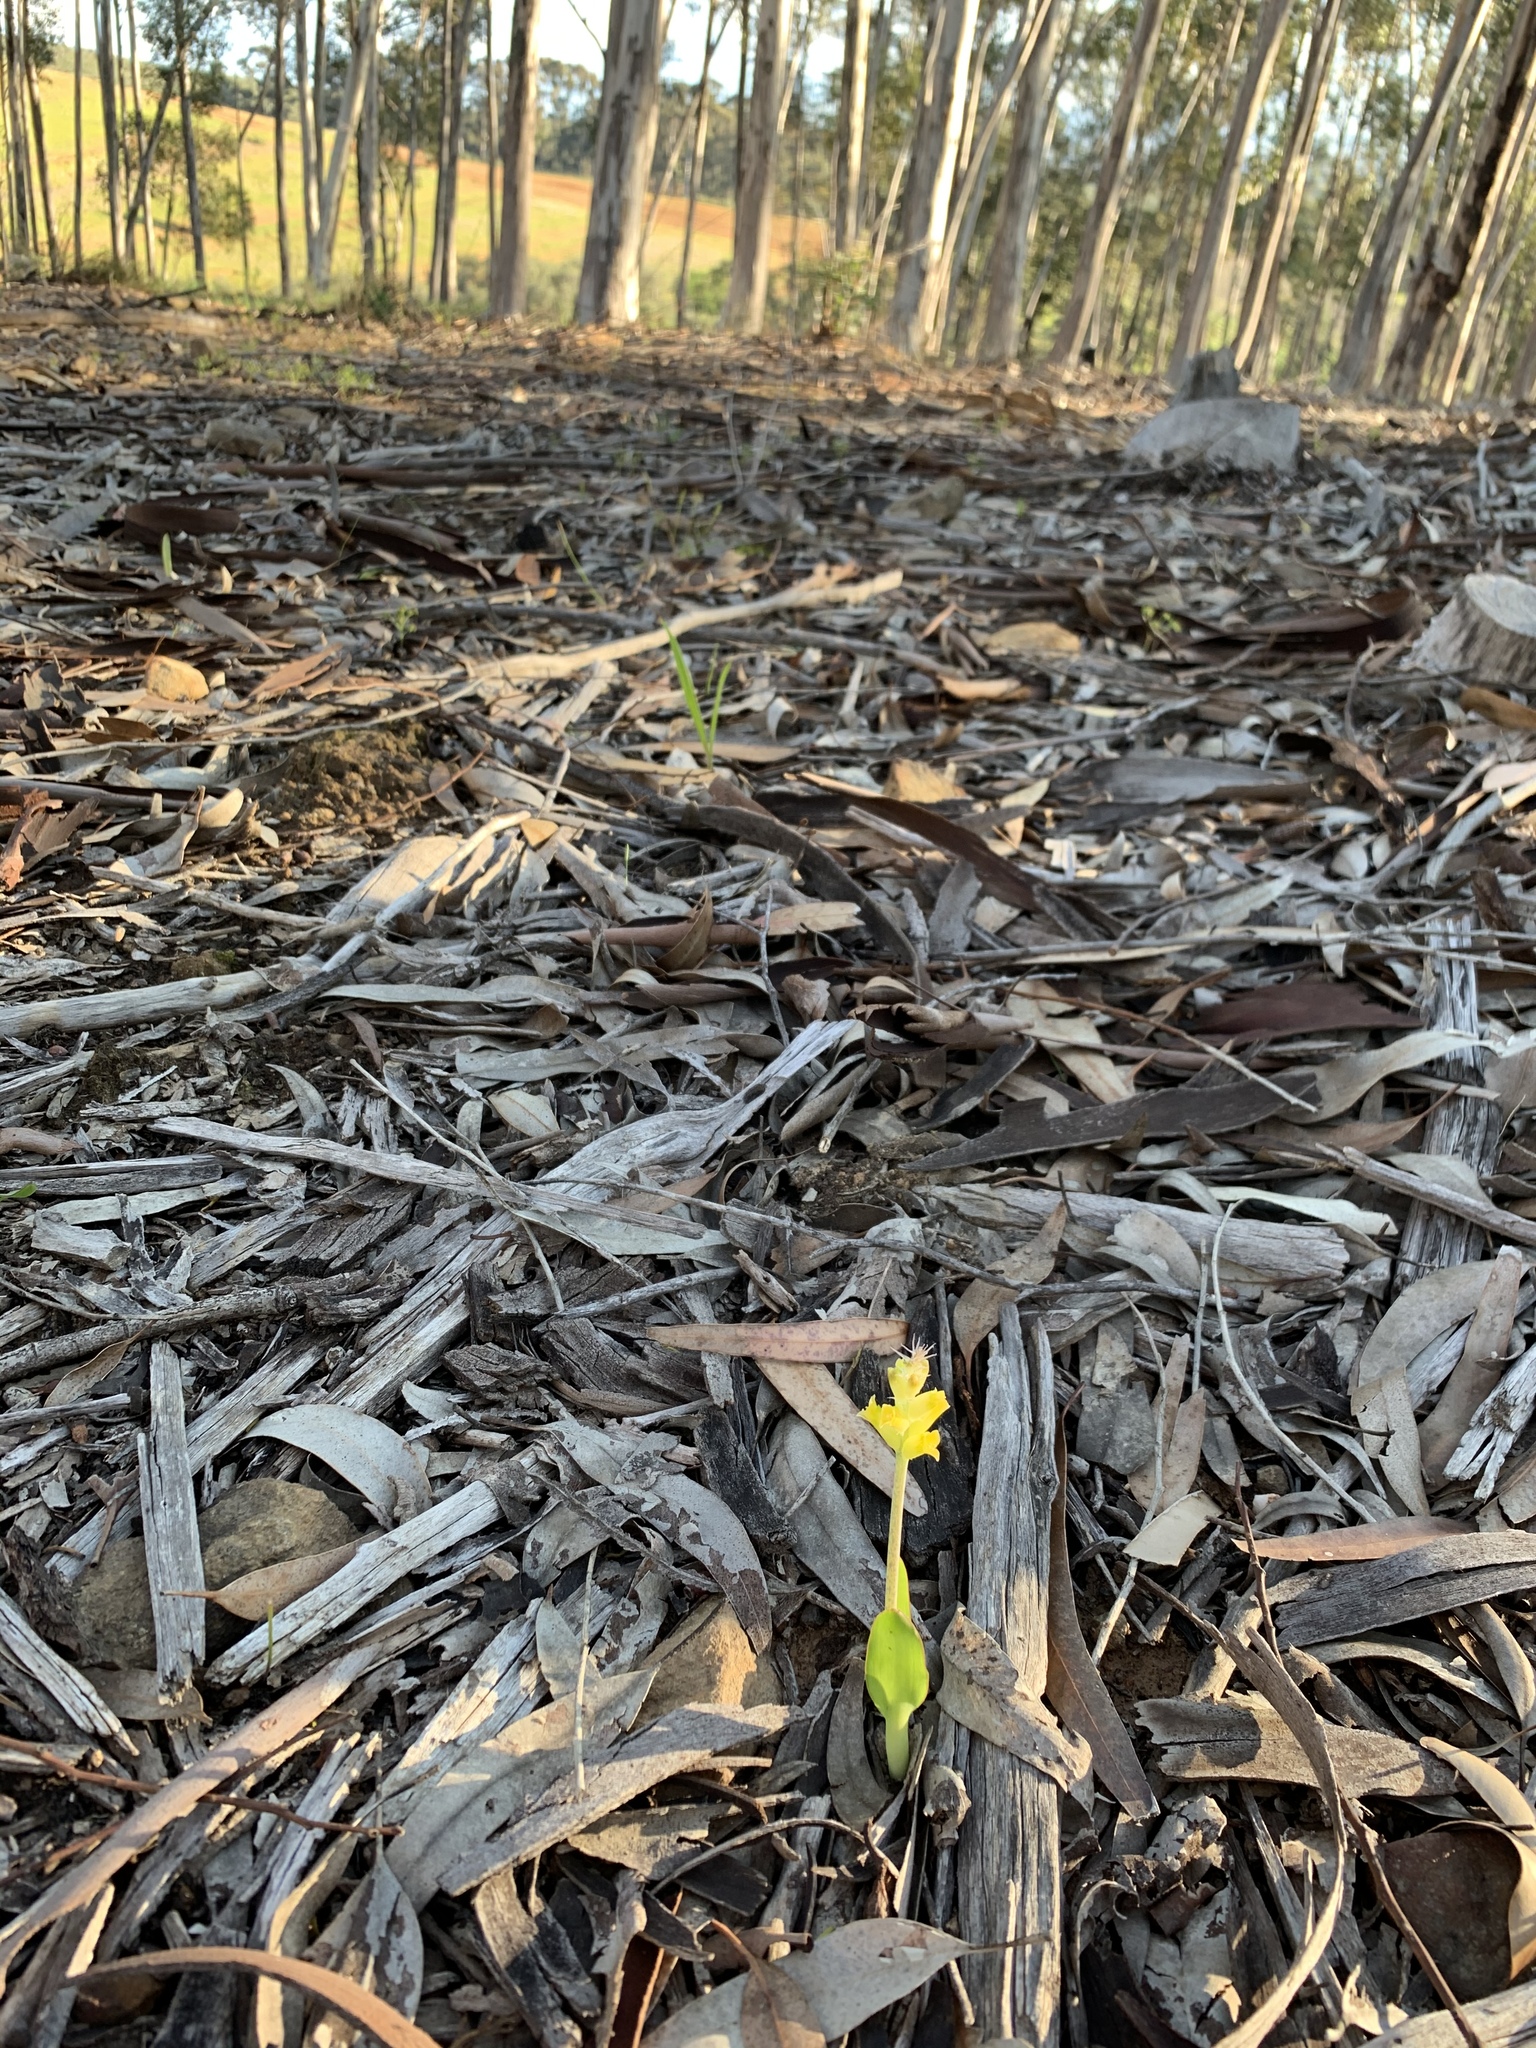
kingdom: Plantae
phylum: Tracheophyta
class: Liliopsida
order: Asparagales
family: Asparagaceae
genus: Lachenalia
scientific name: Lachenalia lutea
